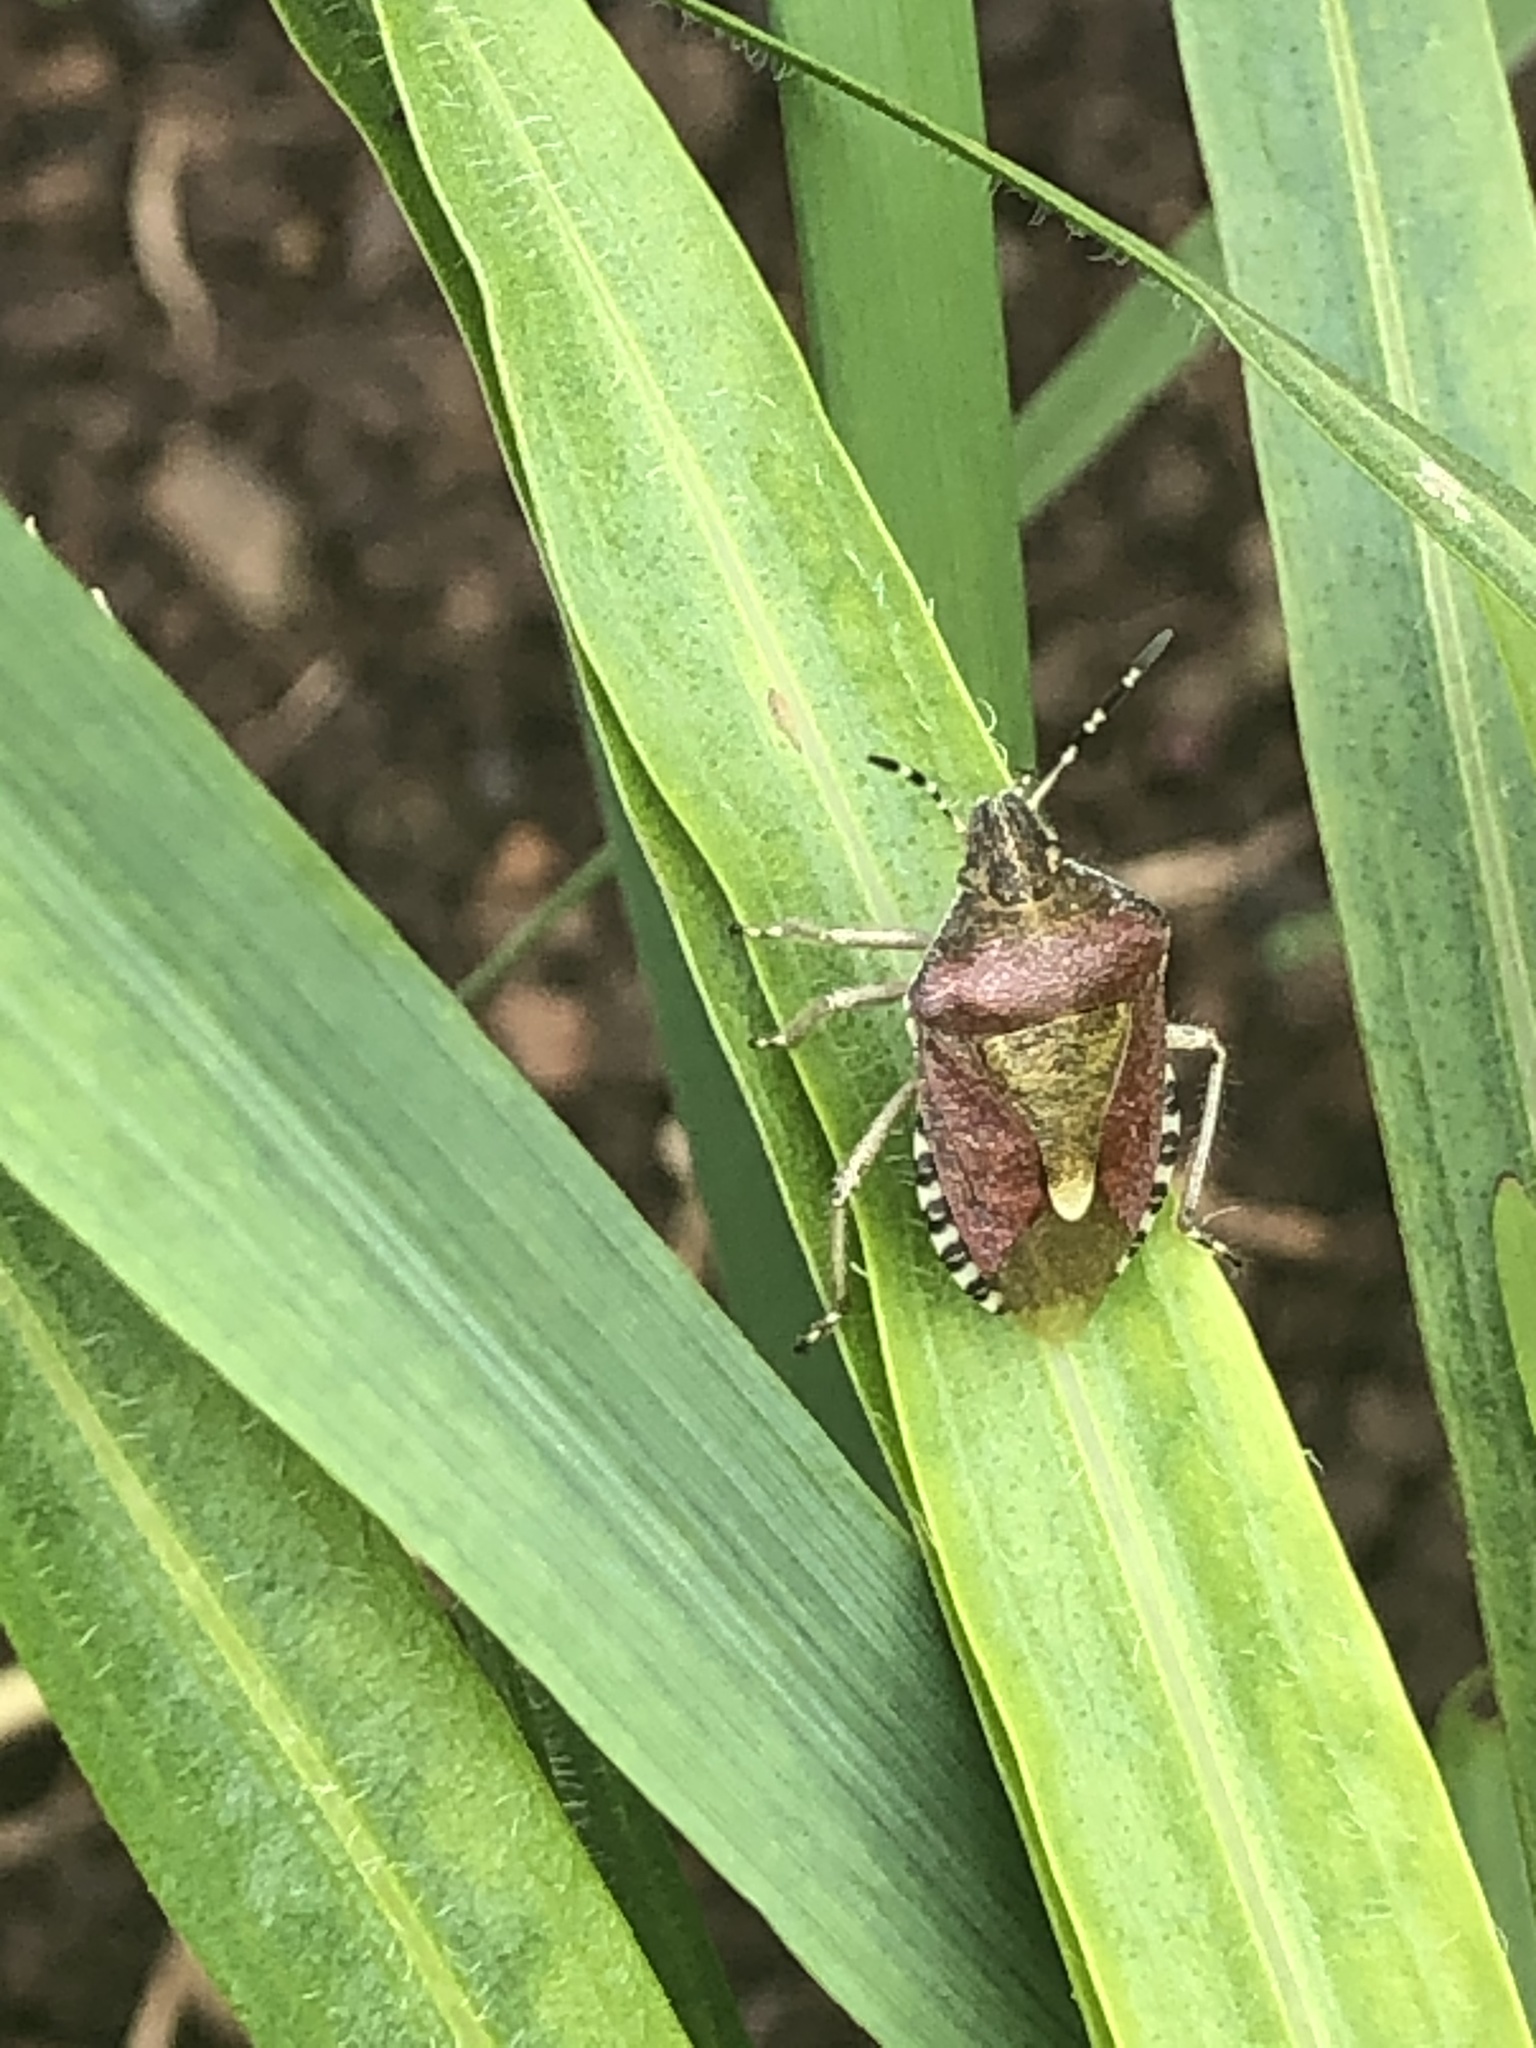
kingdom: Animalia
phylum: Arthropoda
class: Insecta
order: Hemiptera
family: Pentatomidae
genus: Dolycoris
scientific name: Dolycoris baccarum
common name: Sloe bug
